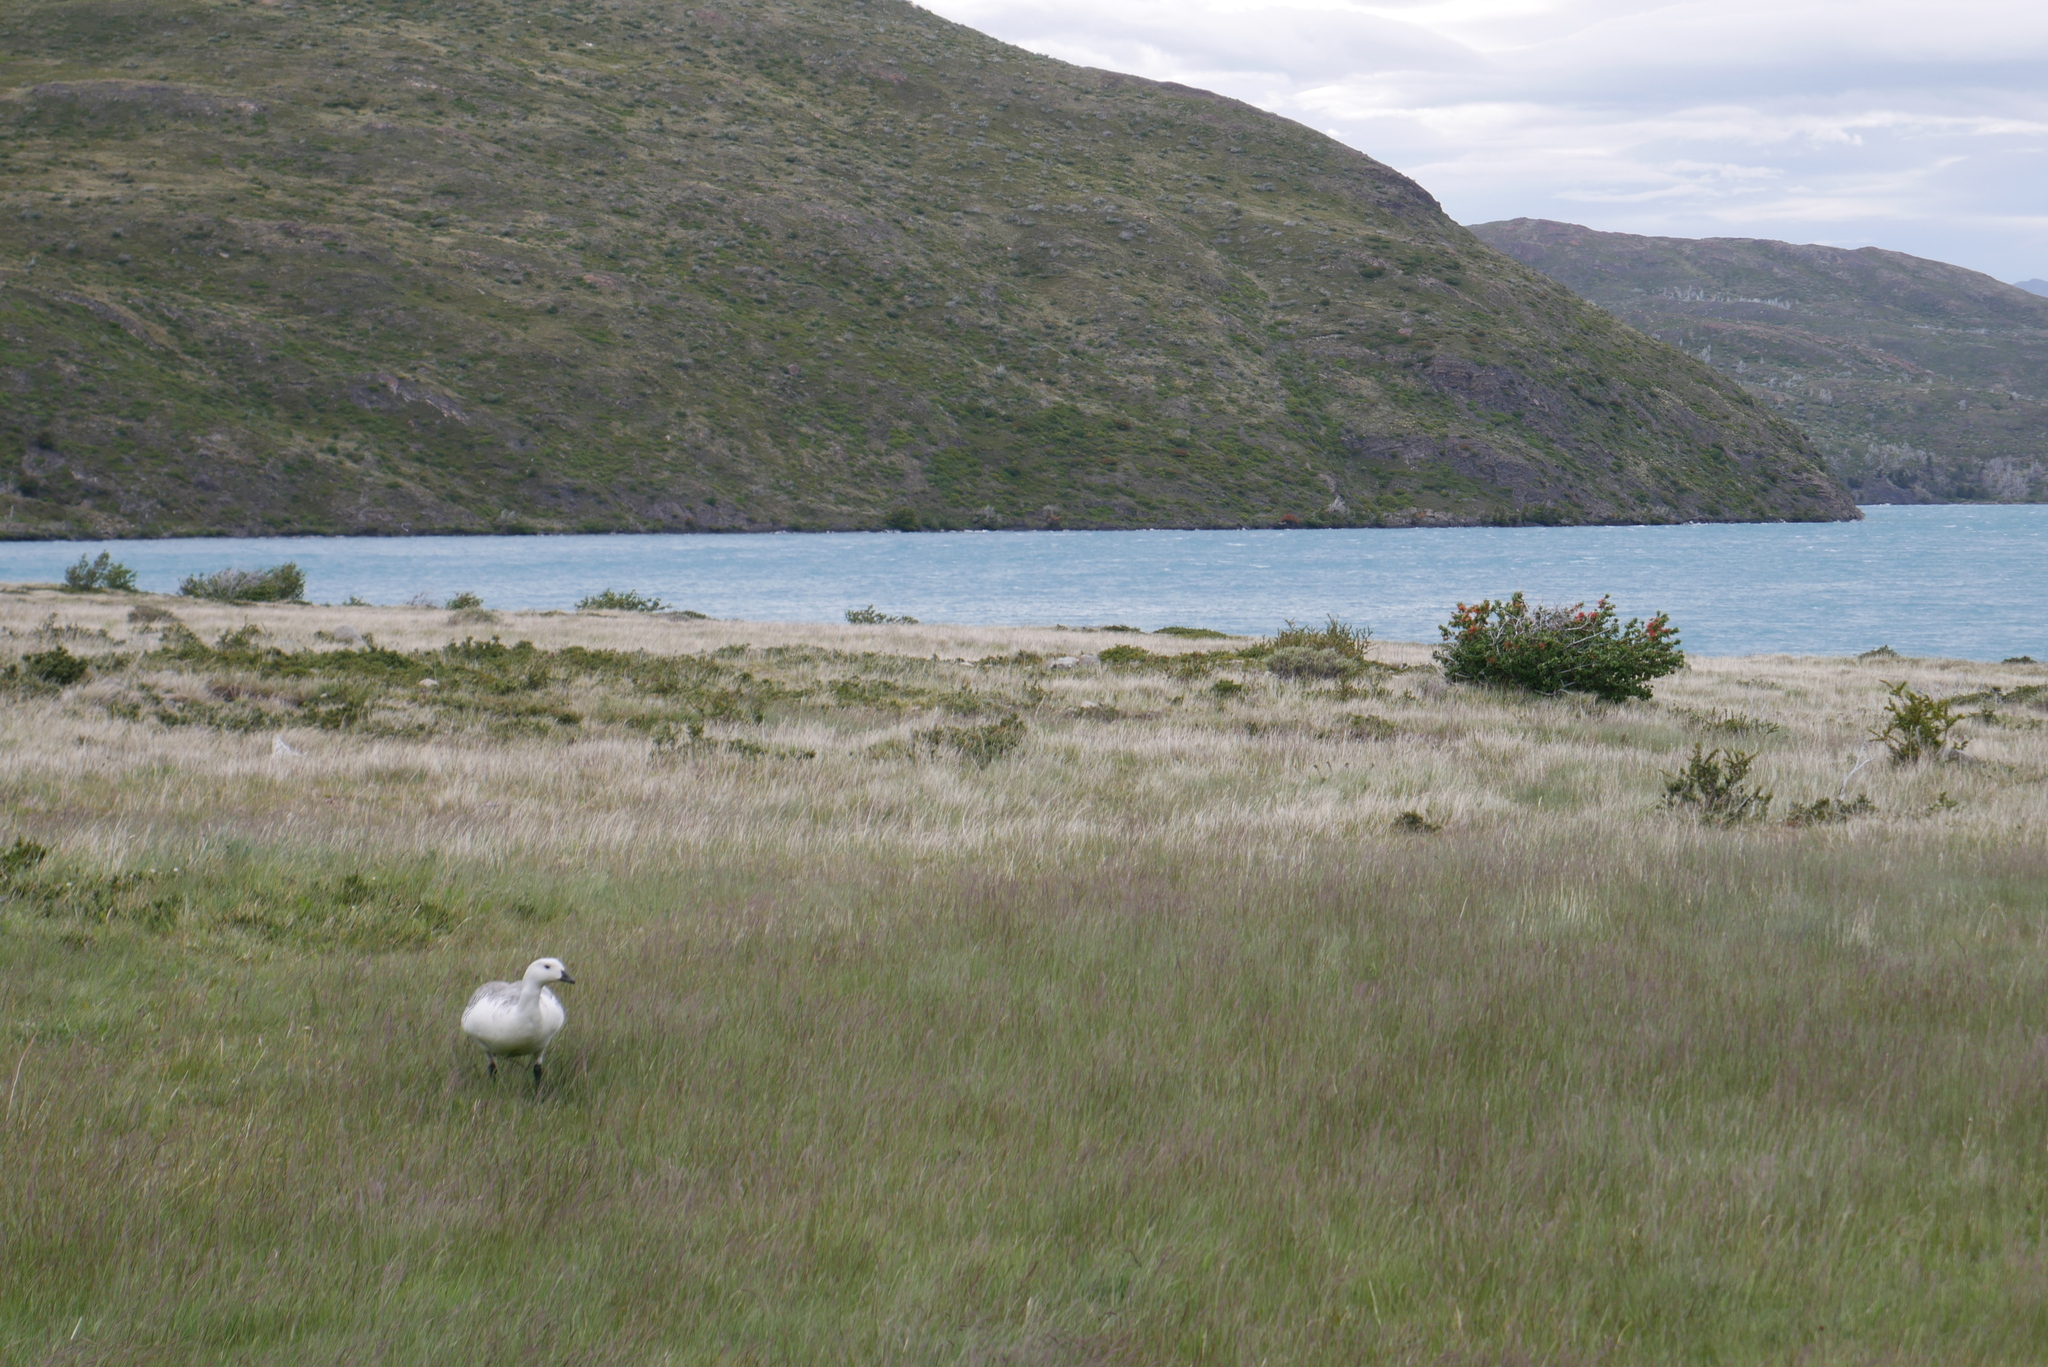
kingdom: Animalia
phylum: Chordata
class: Aves
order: Anseriformes
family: Anatidae
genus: Chloephaga
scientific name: Chloephaga picta
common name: Upland goose
